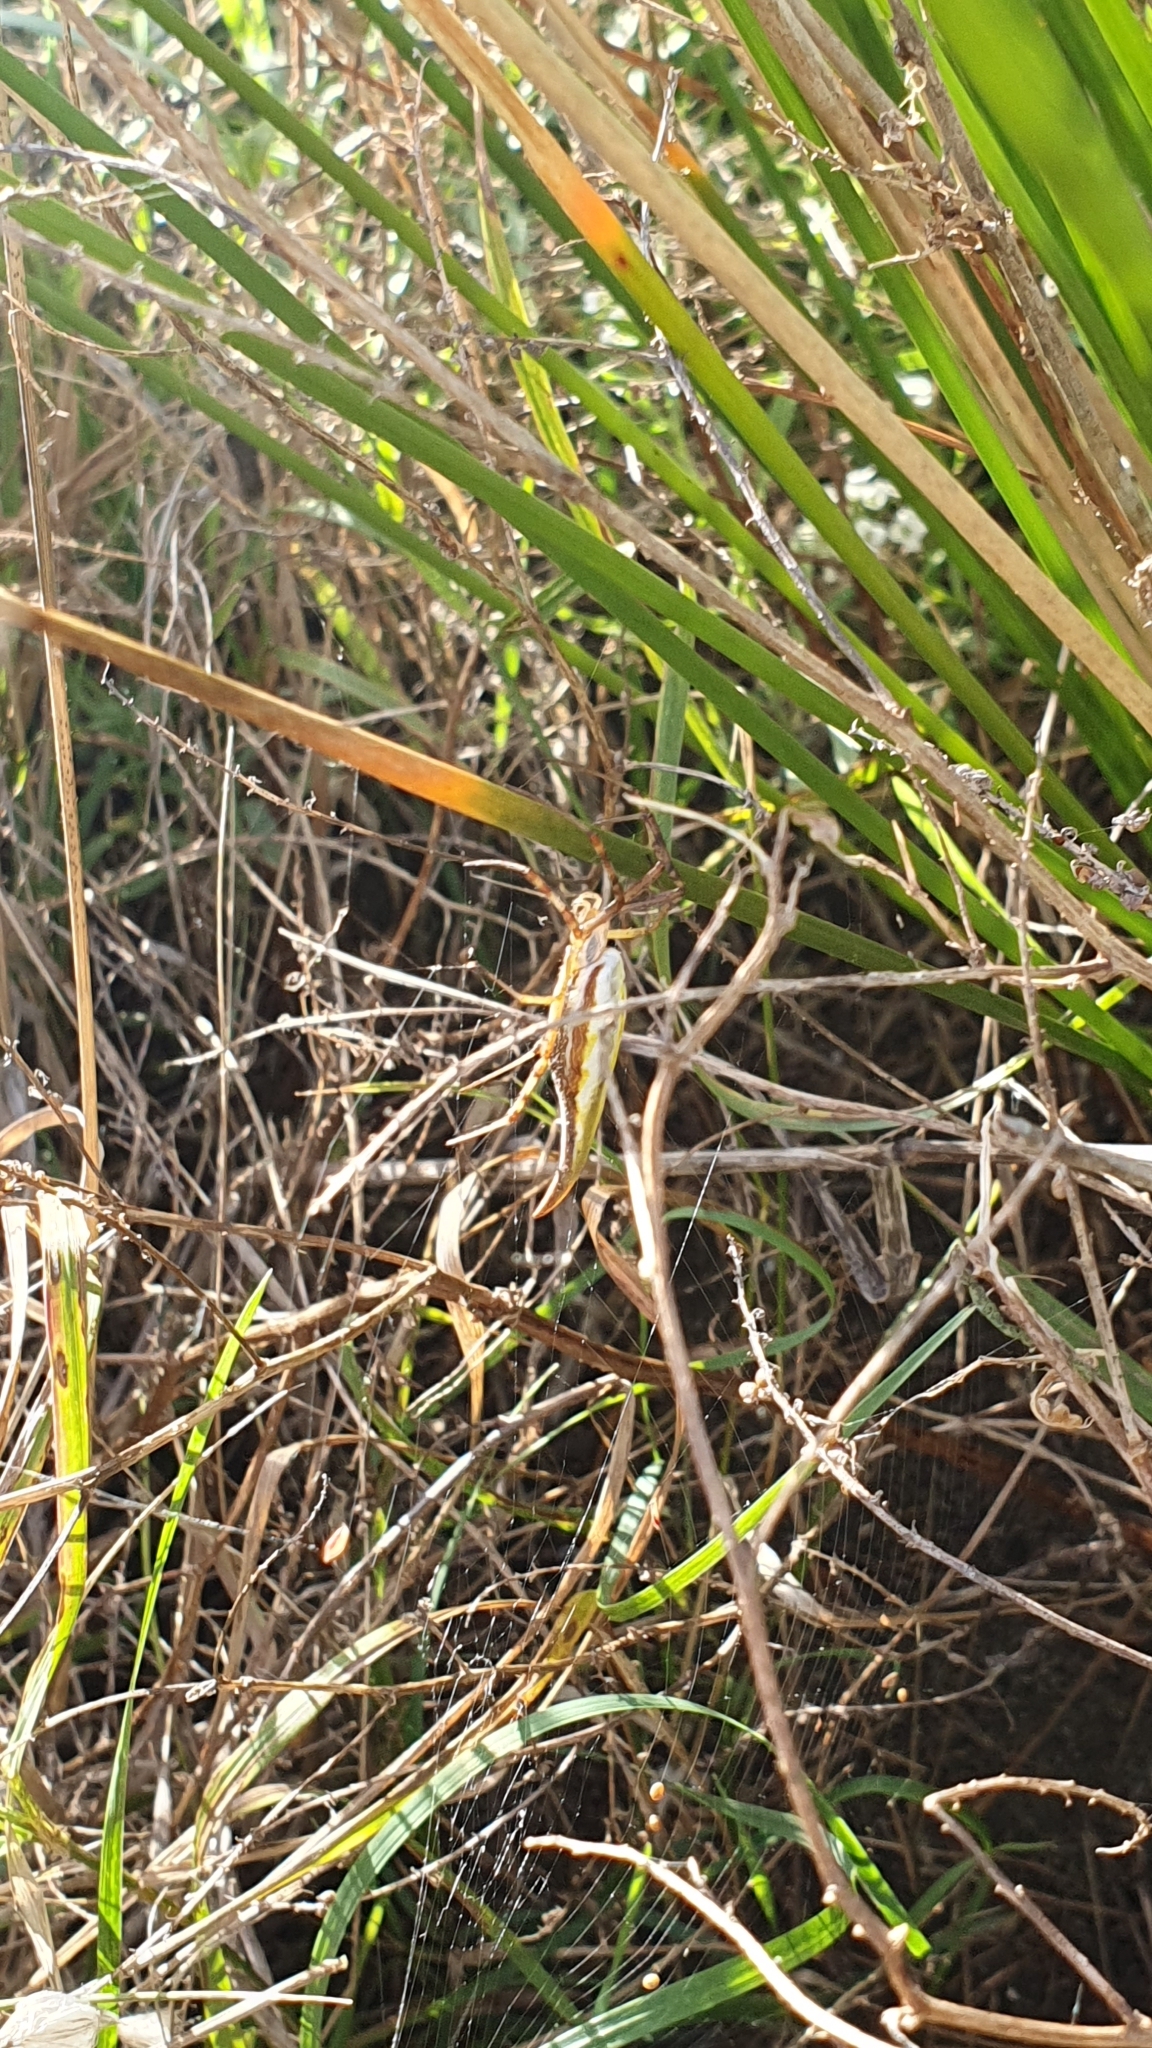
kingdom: Animalia
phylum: Arthropoda
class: Arachnida
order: Araneae
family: Araneidae
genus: Argiope
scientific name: Argiope protensa
